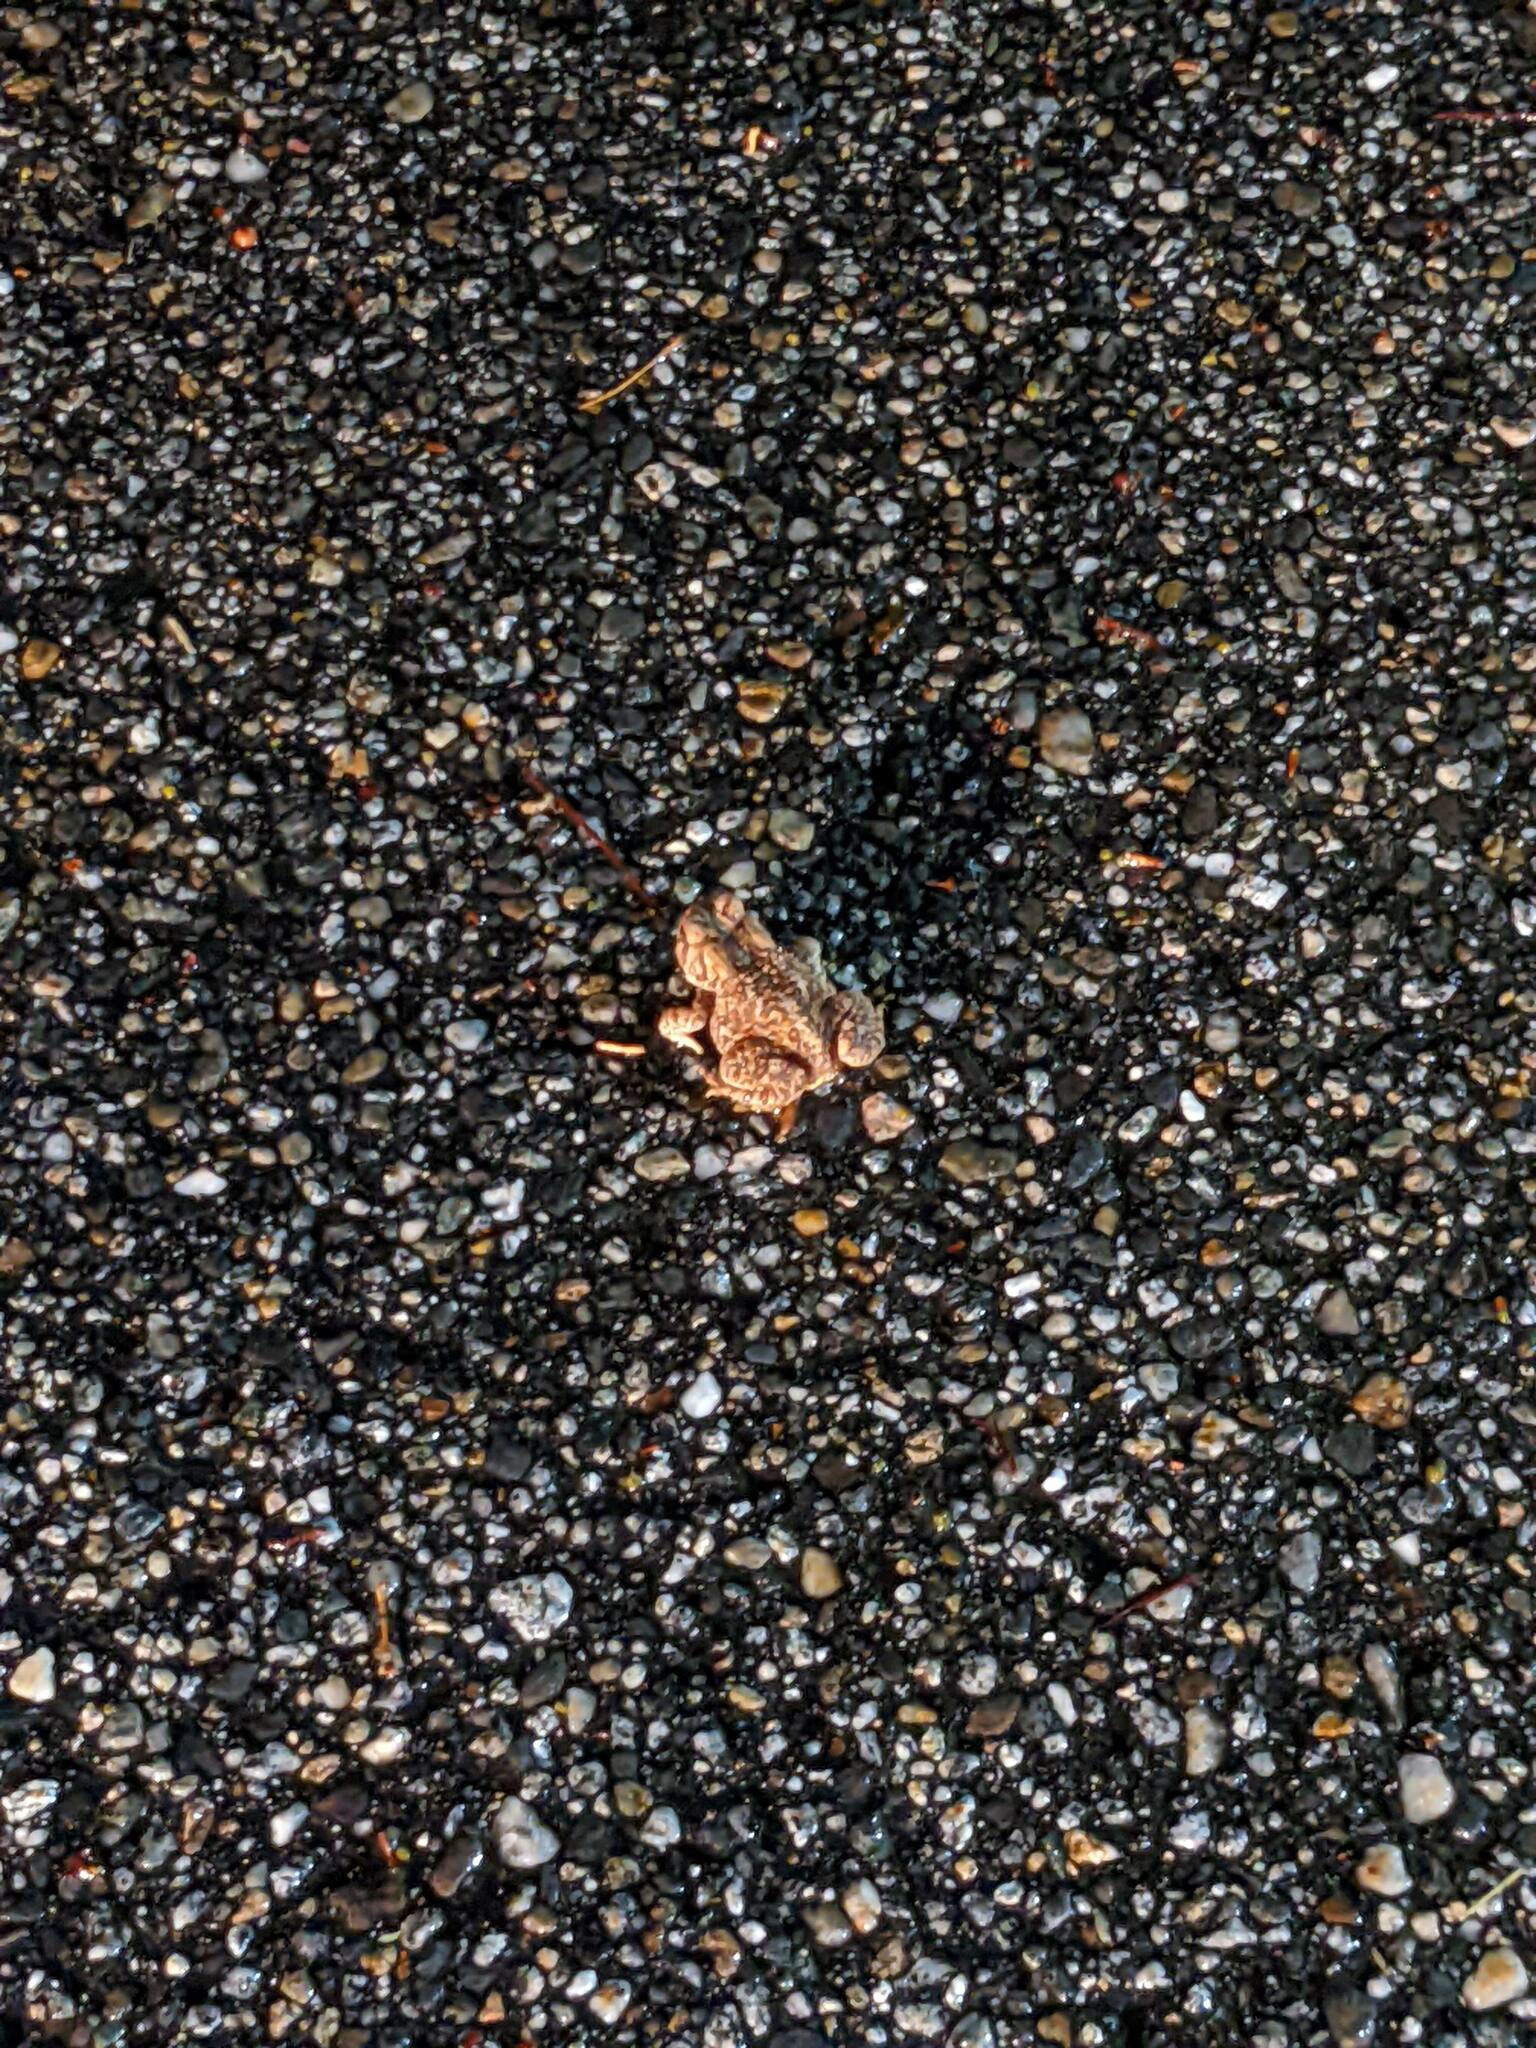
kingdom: Animalia
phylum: Chordata
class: Amphibia
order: Anura
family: Bufonidae
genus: Anaxyrus
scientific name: Anaxyrus americanus
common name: American toad
